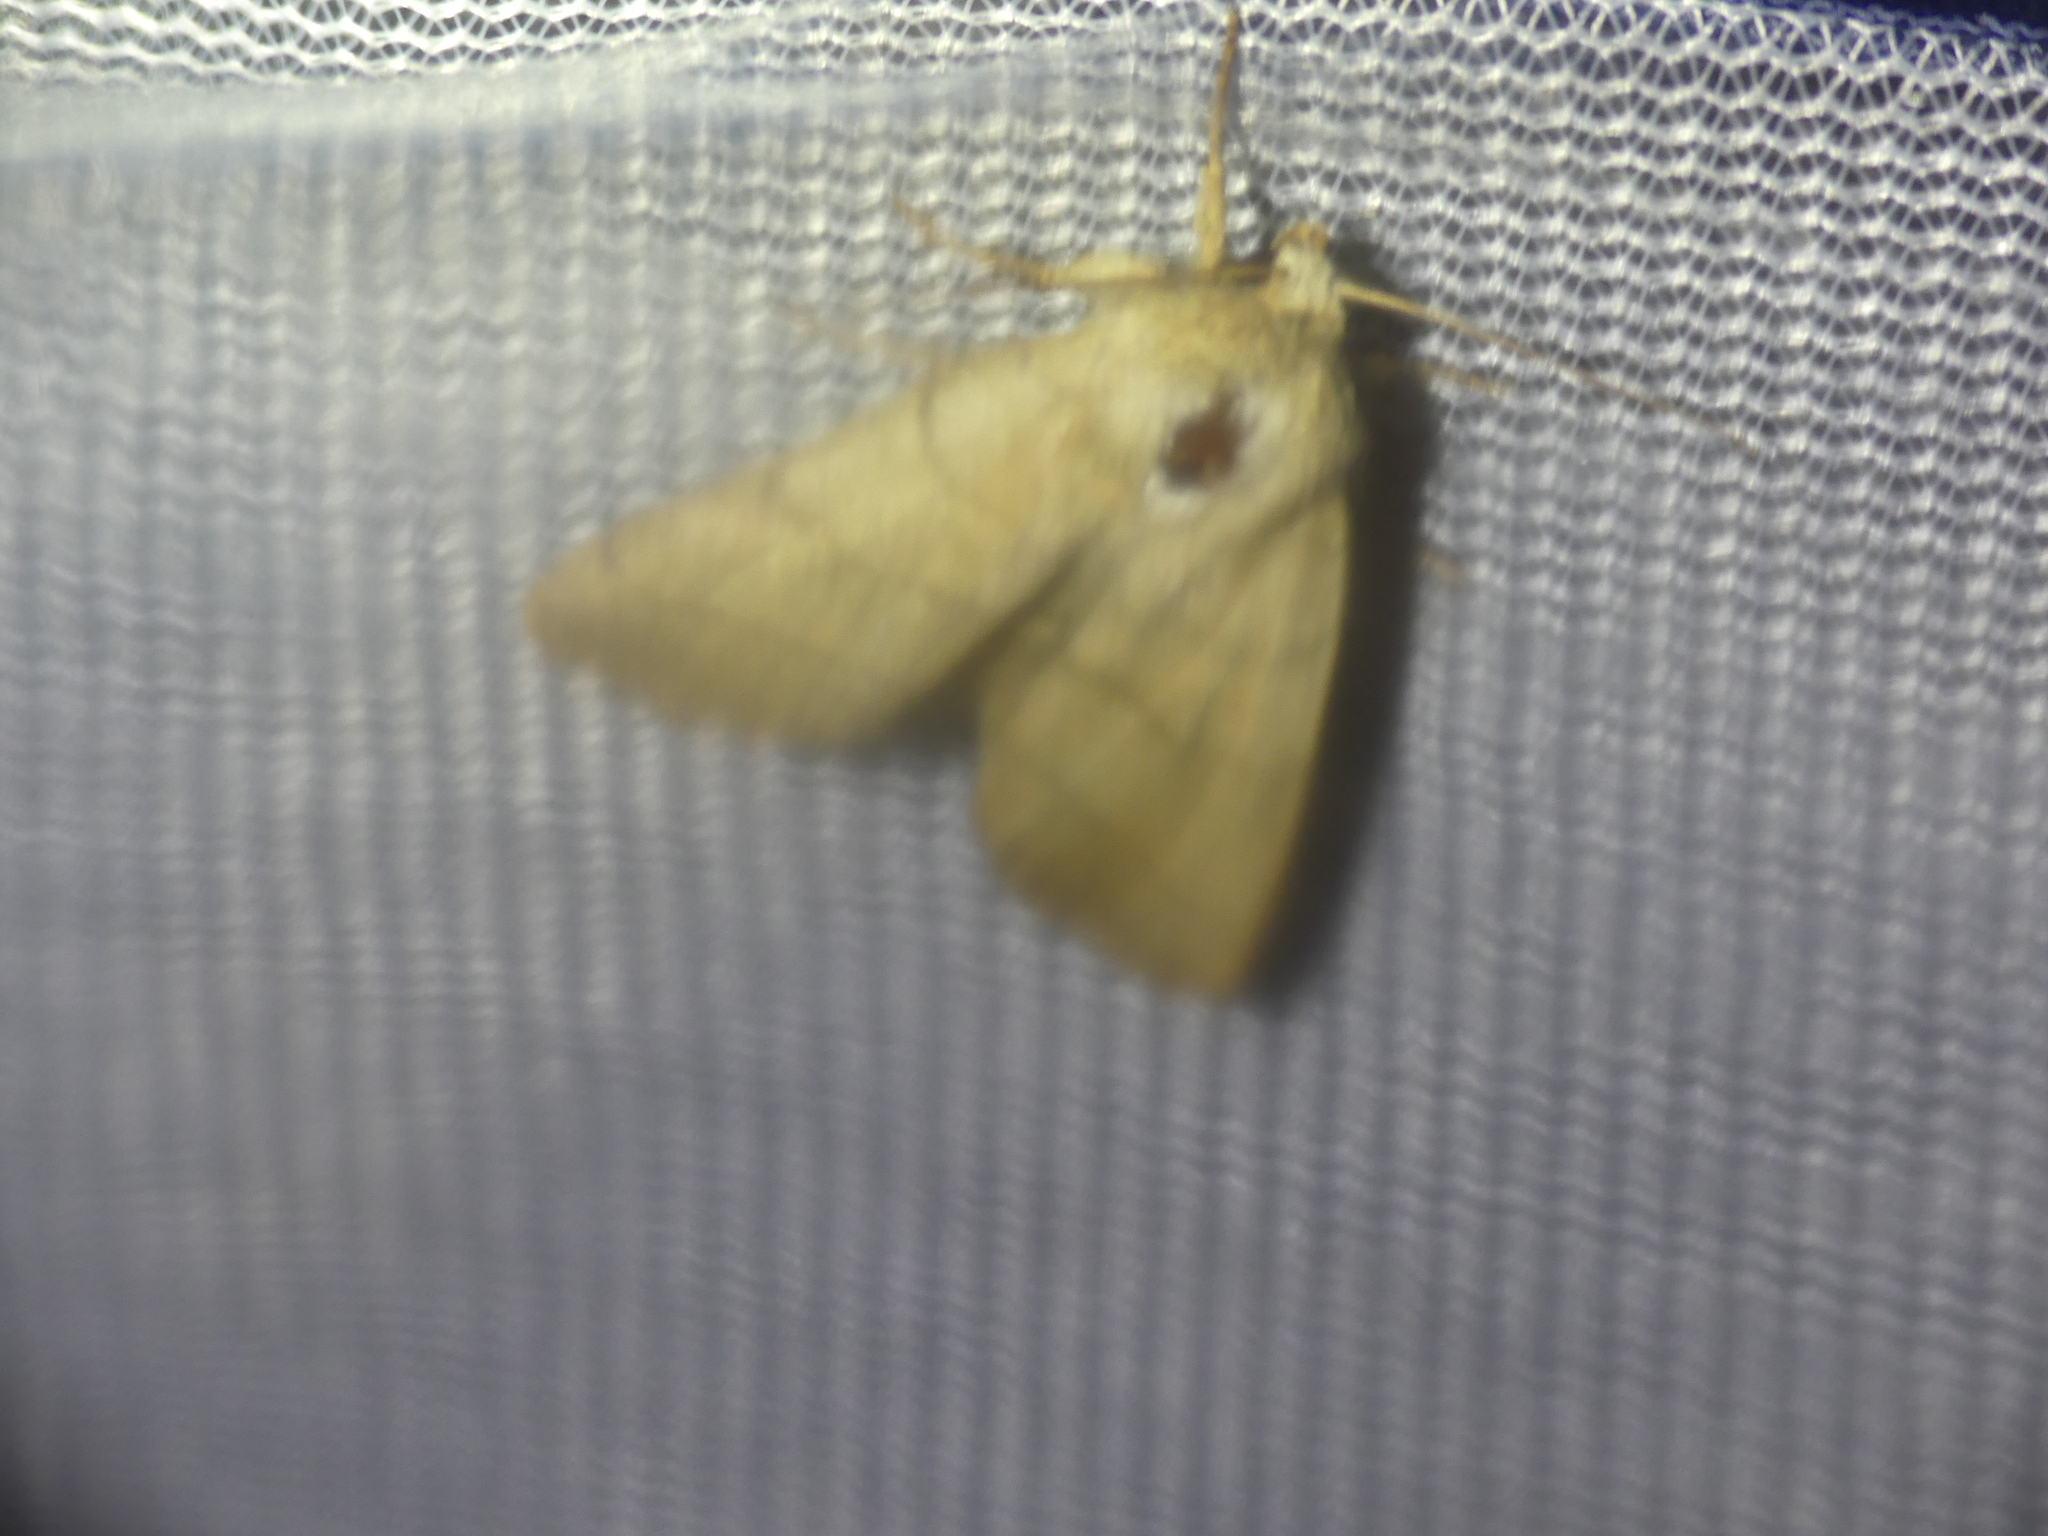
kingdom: Animalia
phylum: Arthropoda
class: Insecta
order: Lepidoptera
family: Noctuidae
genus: Charanyca
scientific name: Charanyca trigrammica
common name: Treble lines
